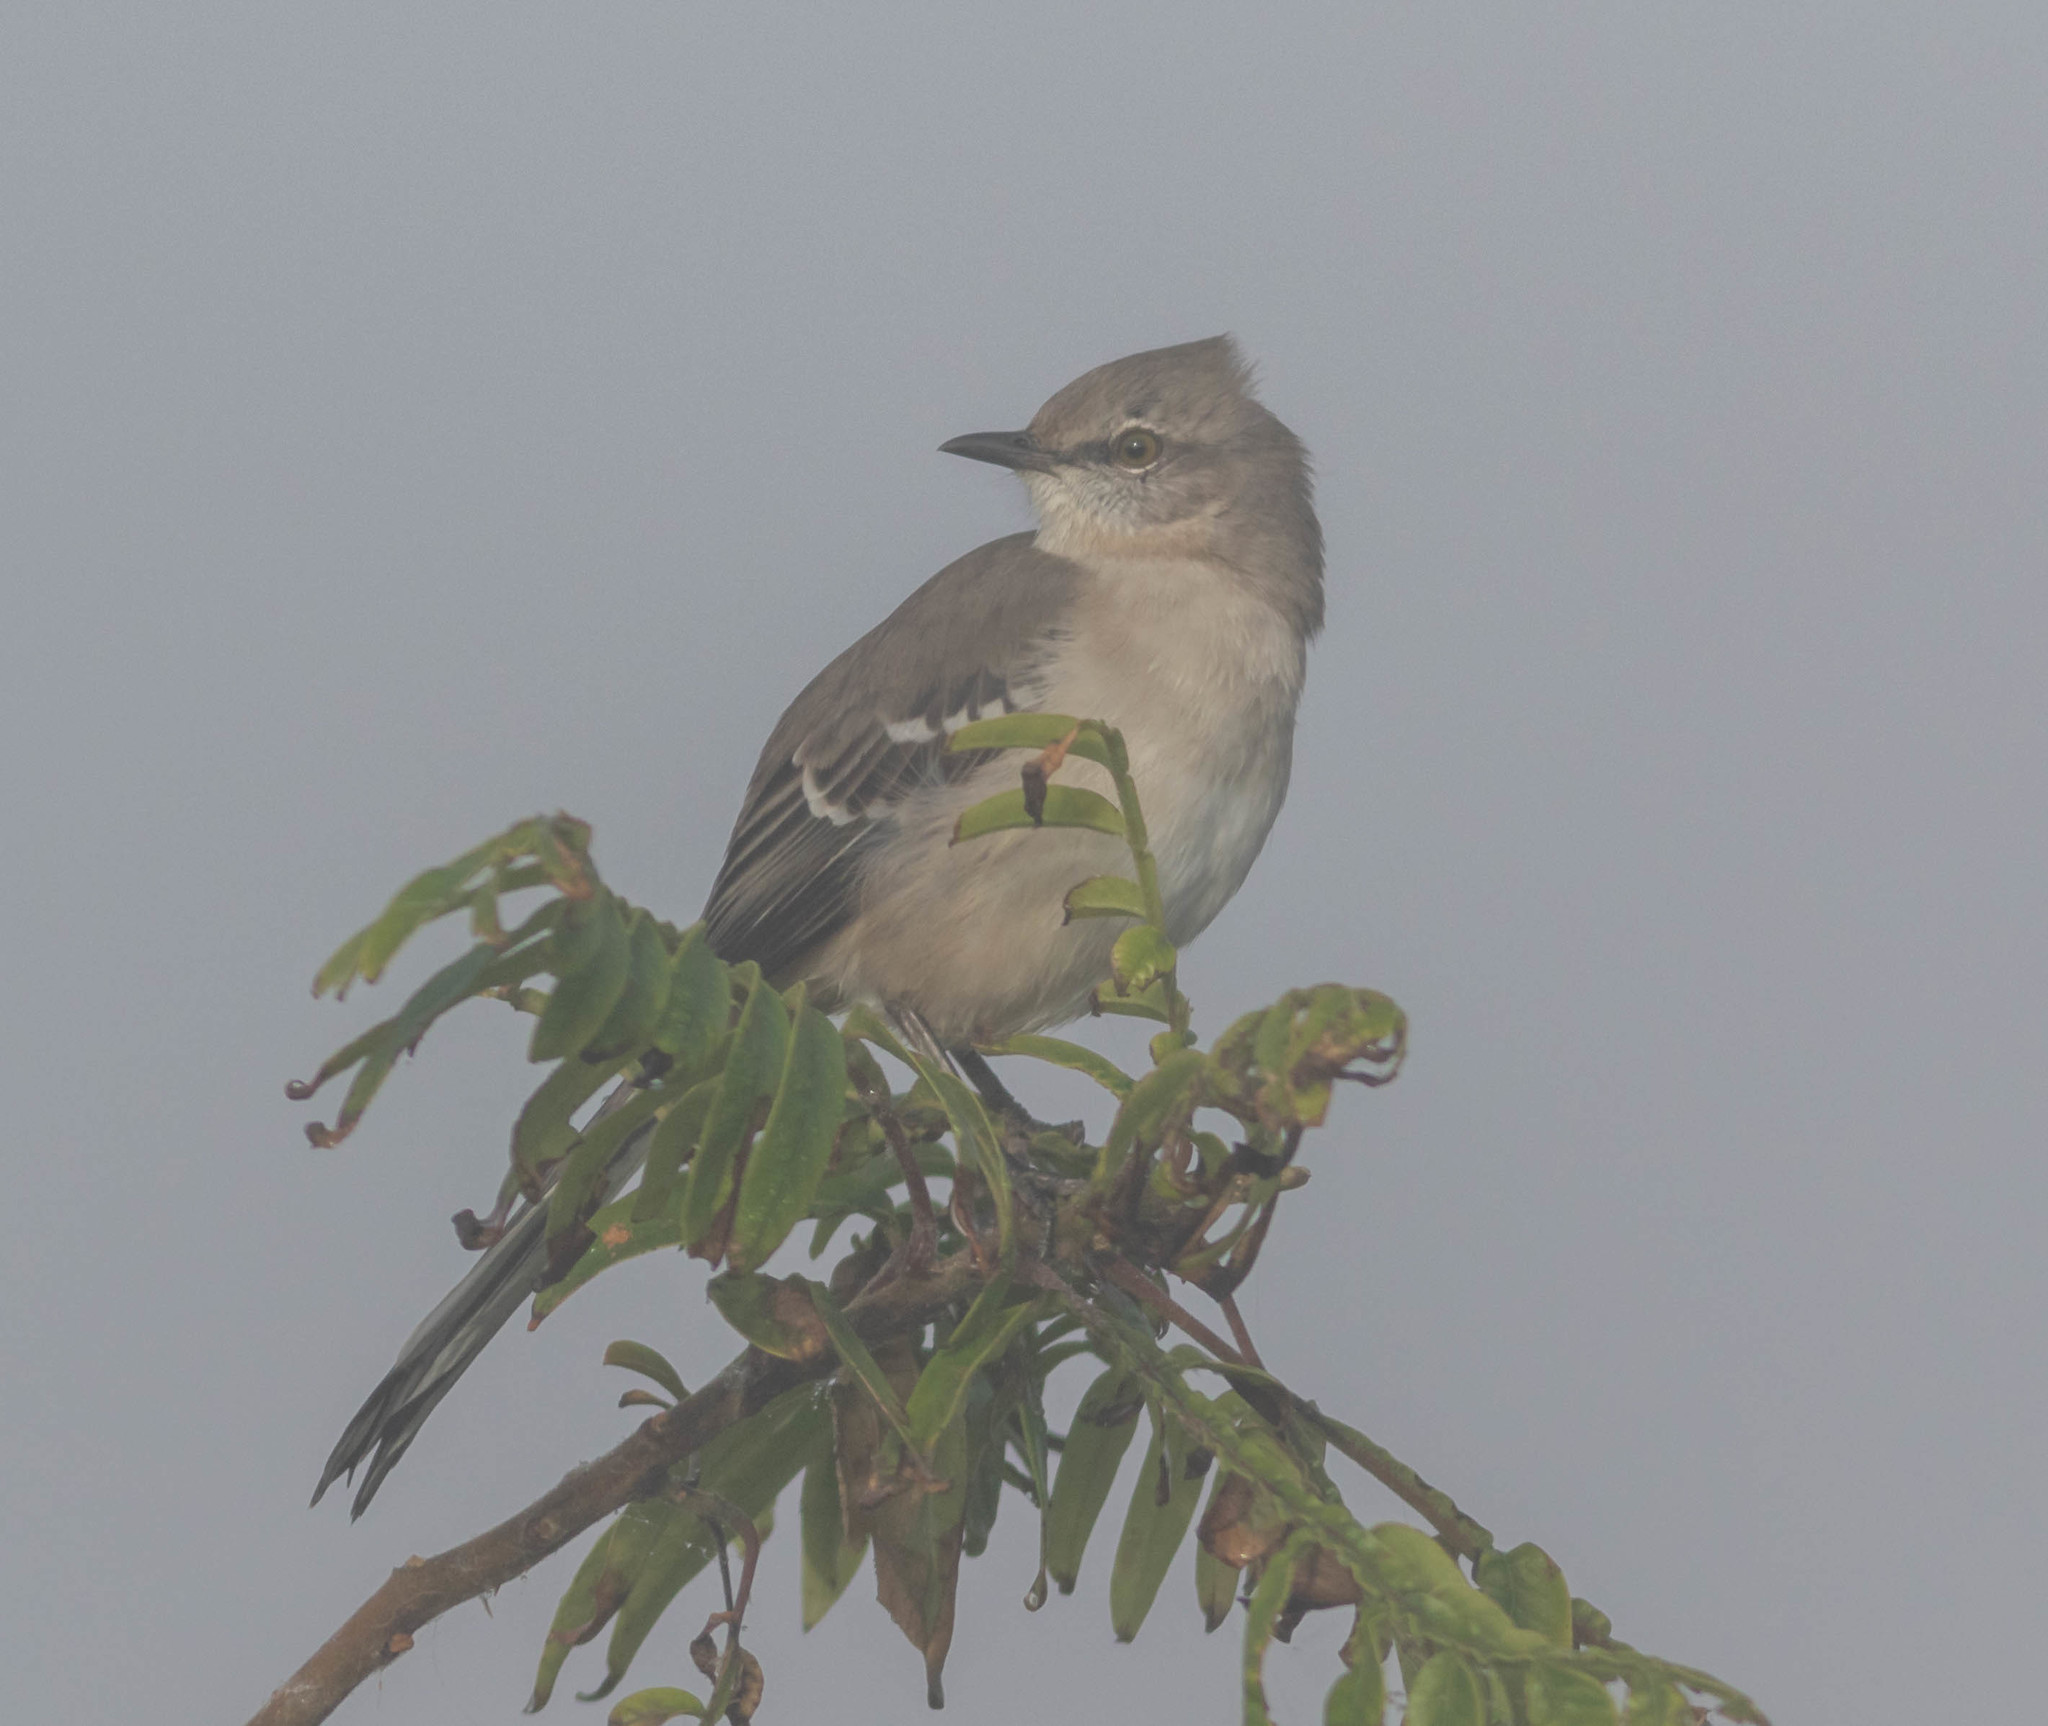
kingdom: Animalia
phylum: Chordata
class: Aves
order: Passeriformes
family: Mimidae
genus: Mimus
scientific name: Mimus polyglottos
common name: Northern mockingbird
